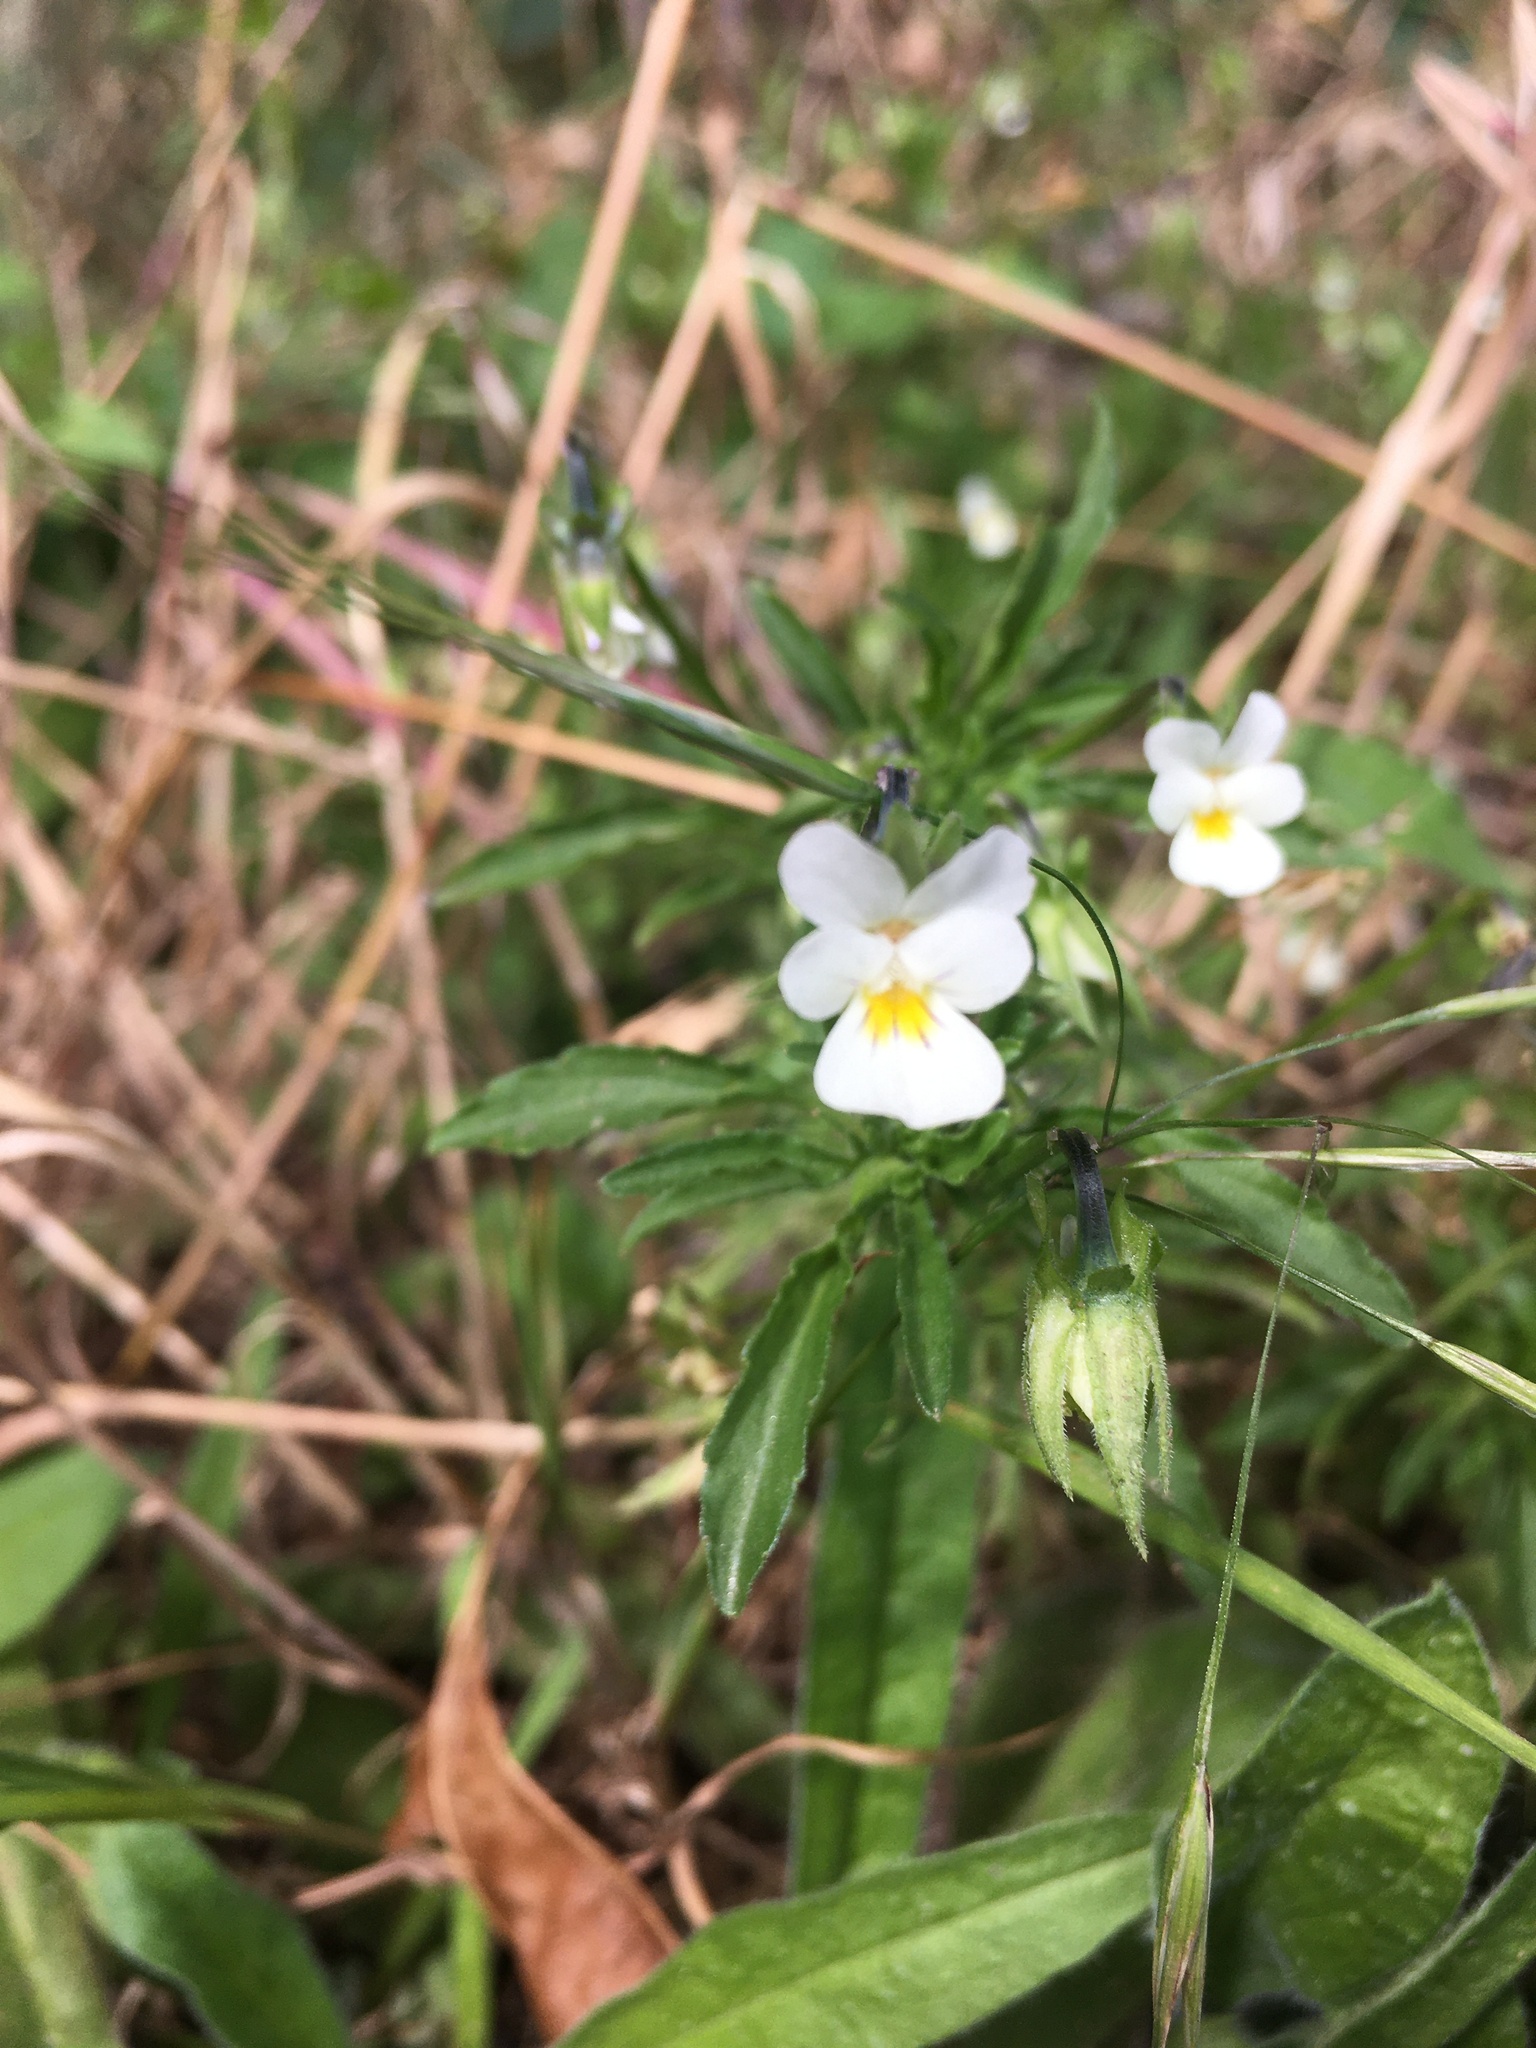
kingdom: Plantae
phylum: Tracheophyta
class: Magnoliopsida
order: Malpighiales
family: Violaceae
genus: Viola
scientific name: Viola arvensis
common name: Field pansy
